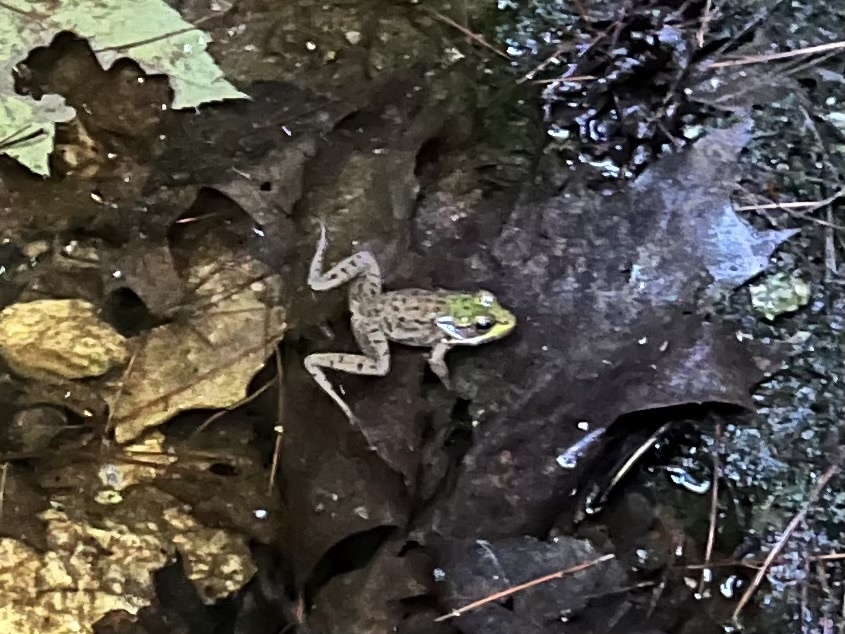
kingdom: Animalia
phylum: Chordata
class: Amphibia
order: Anura
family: Ranidae
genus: Lithobates
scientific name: Lithobates clamitans
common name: Green frog
